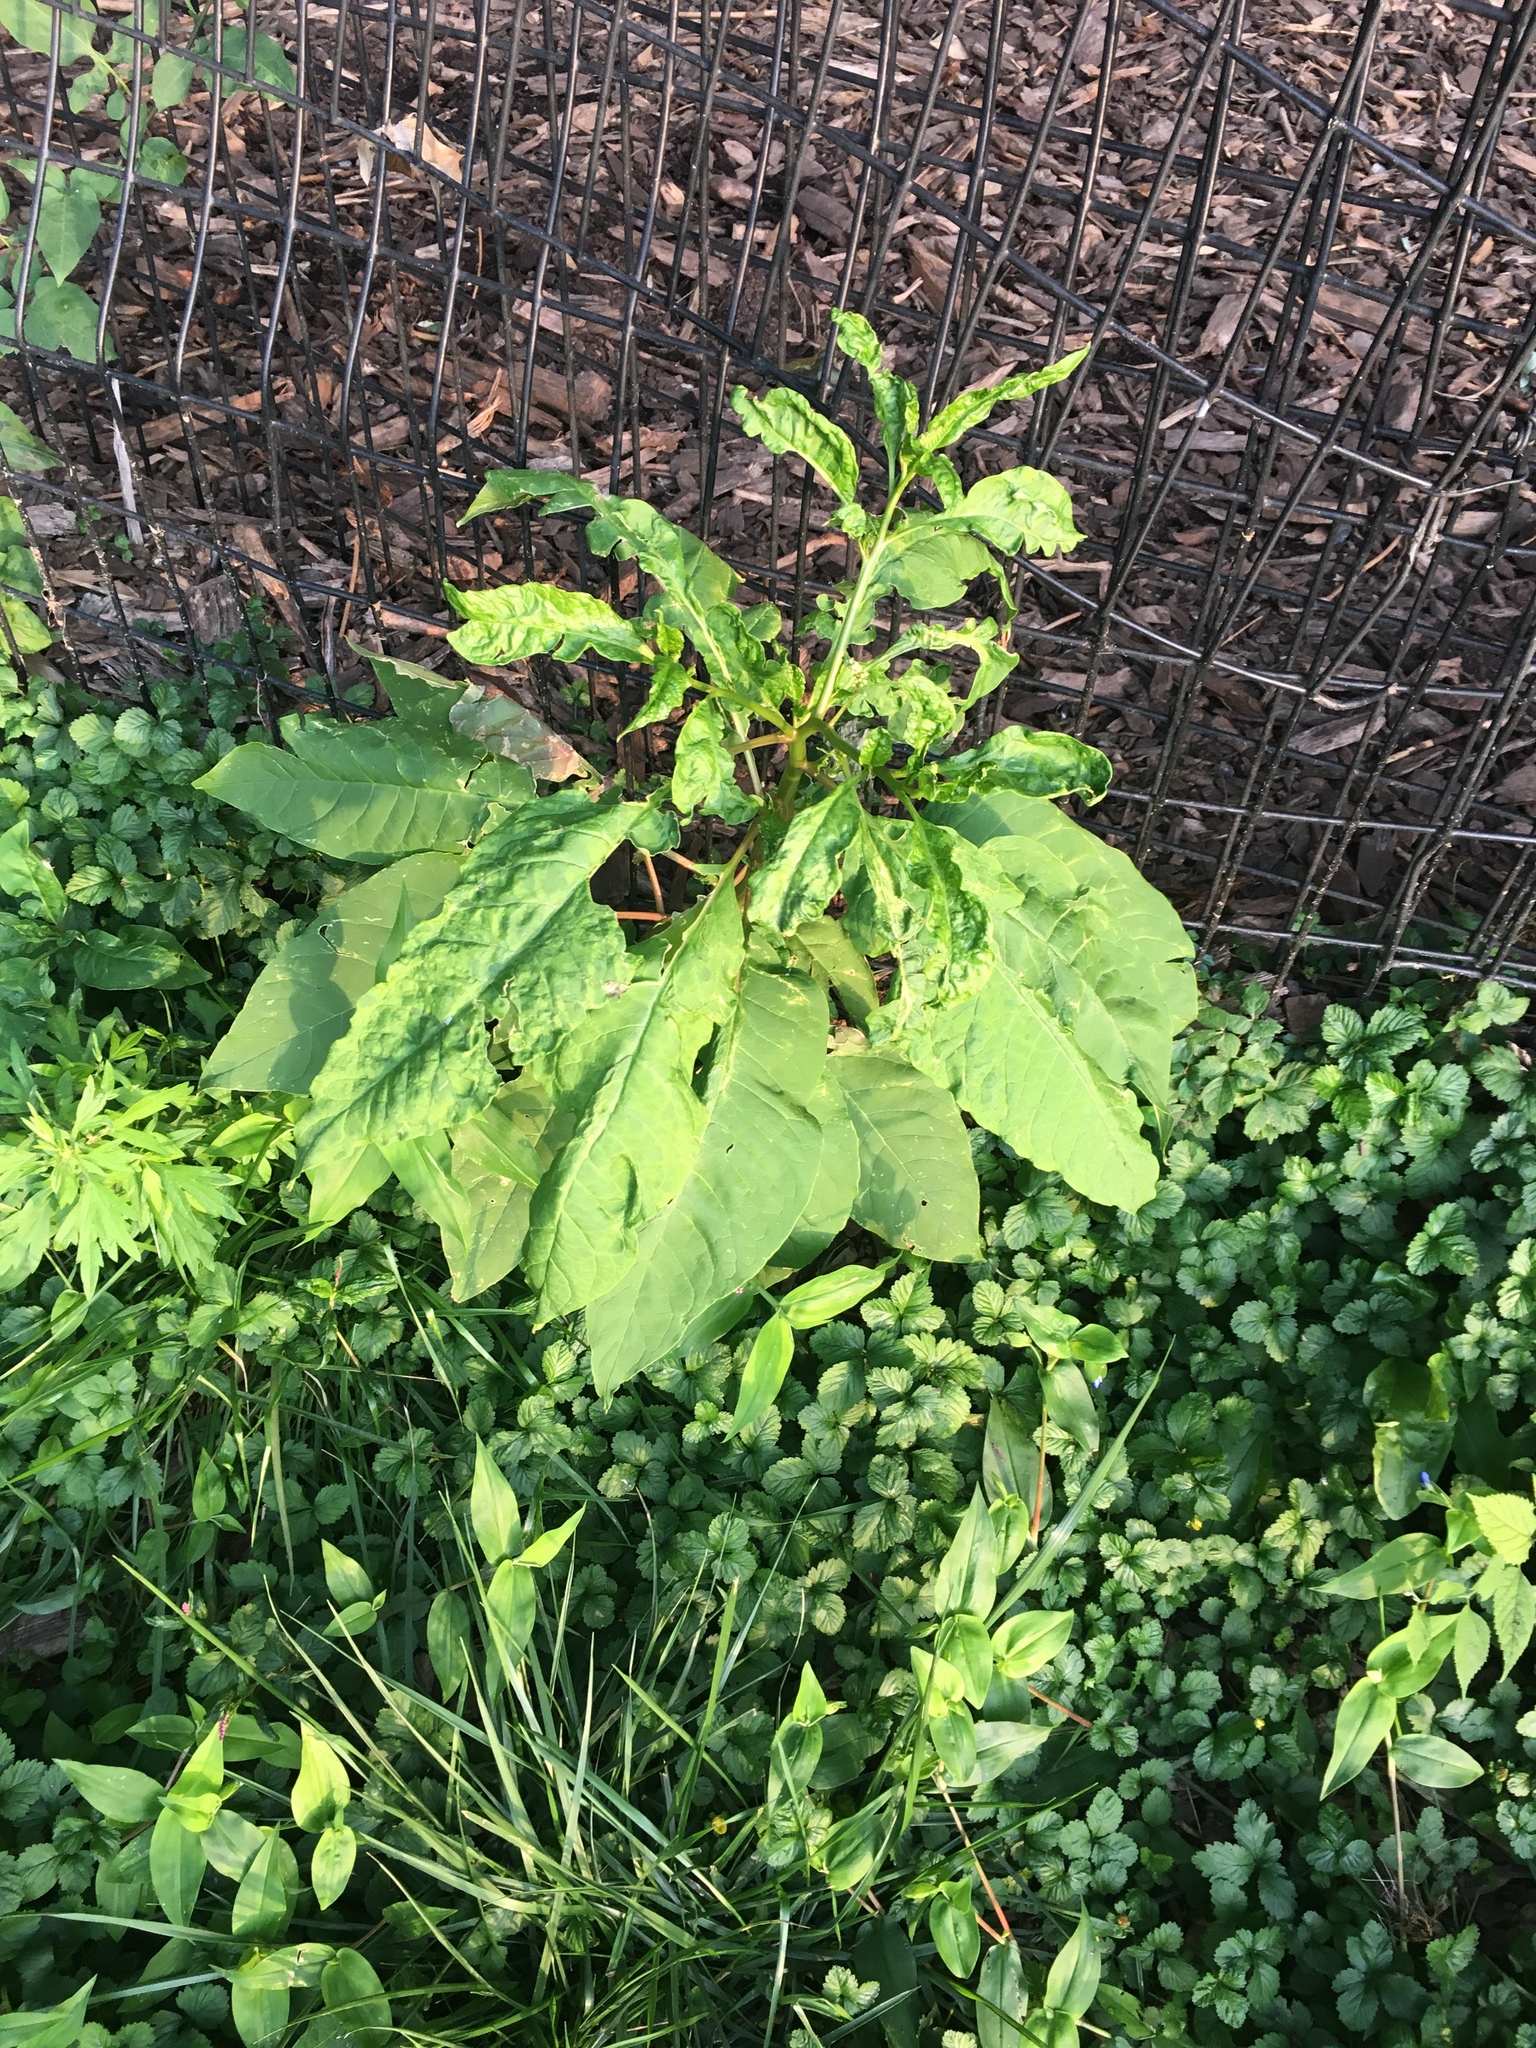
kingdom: Plantae
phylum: Tracheophyta
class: Magnoliopsida
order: Caryophyllales
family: Phytolaccaceae
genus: Phytolacca
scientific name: Phytolacca americana
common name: American pokeweed
